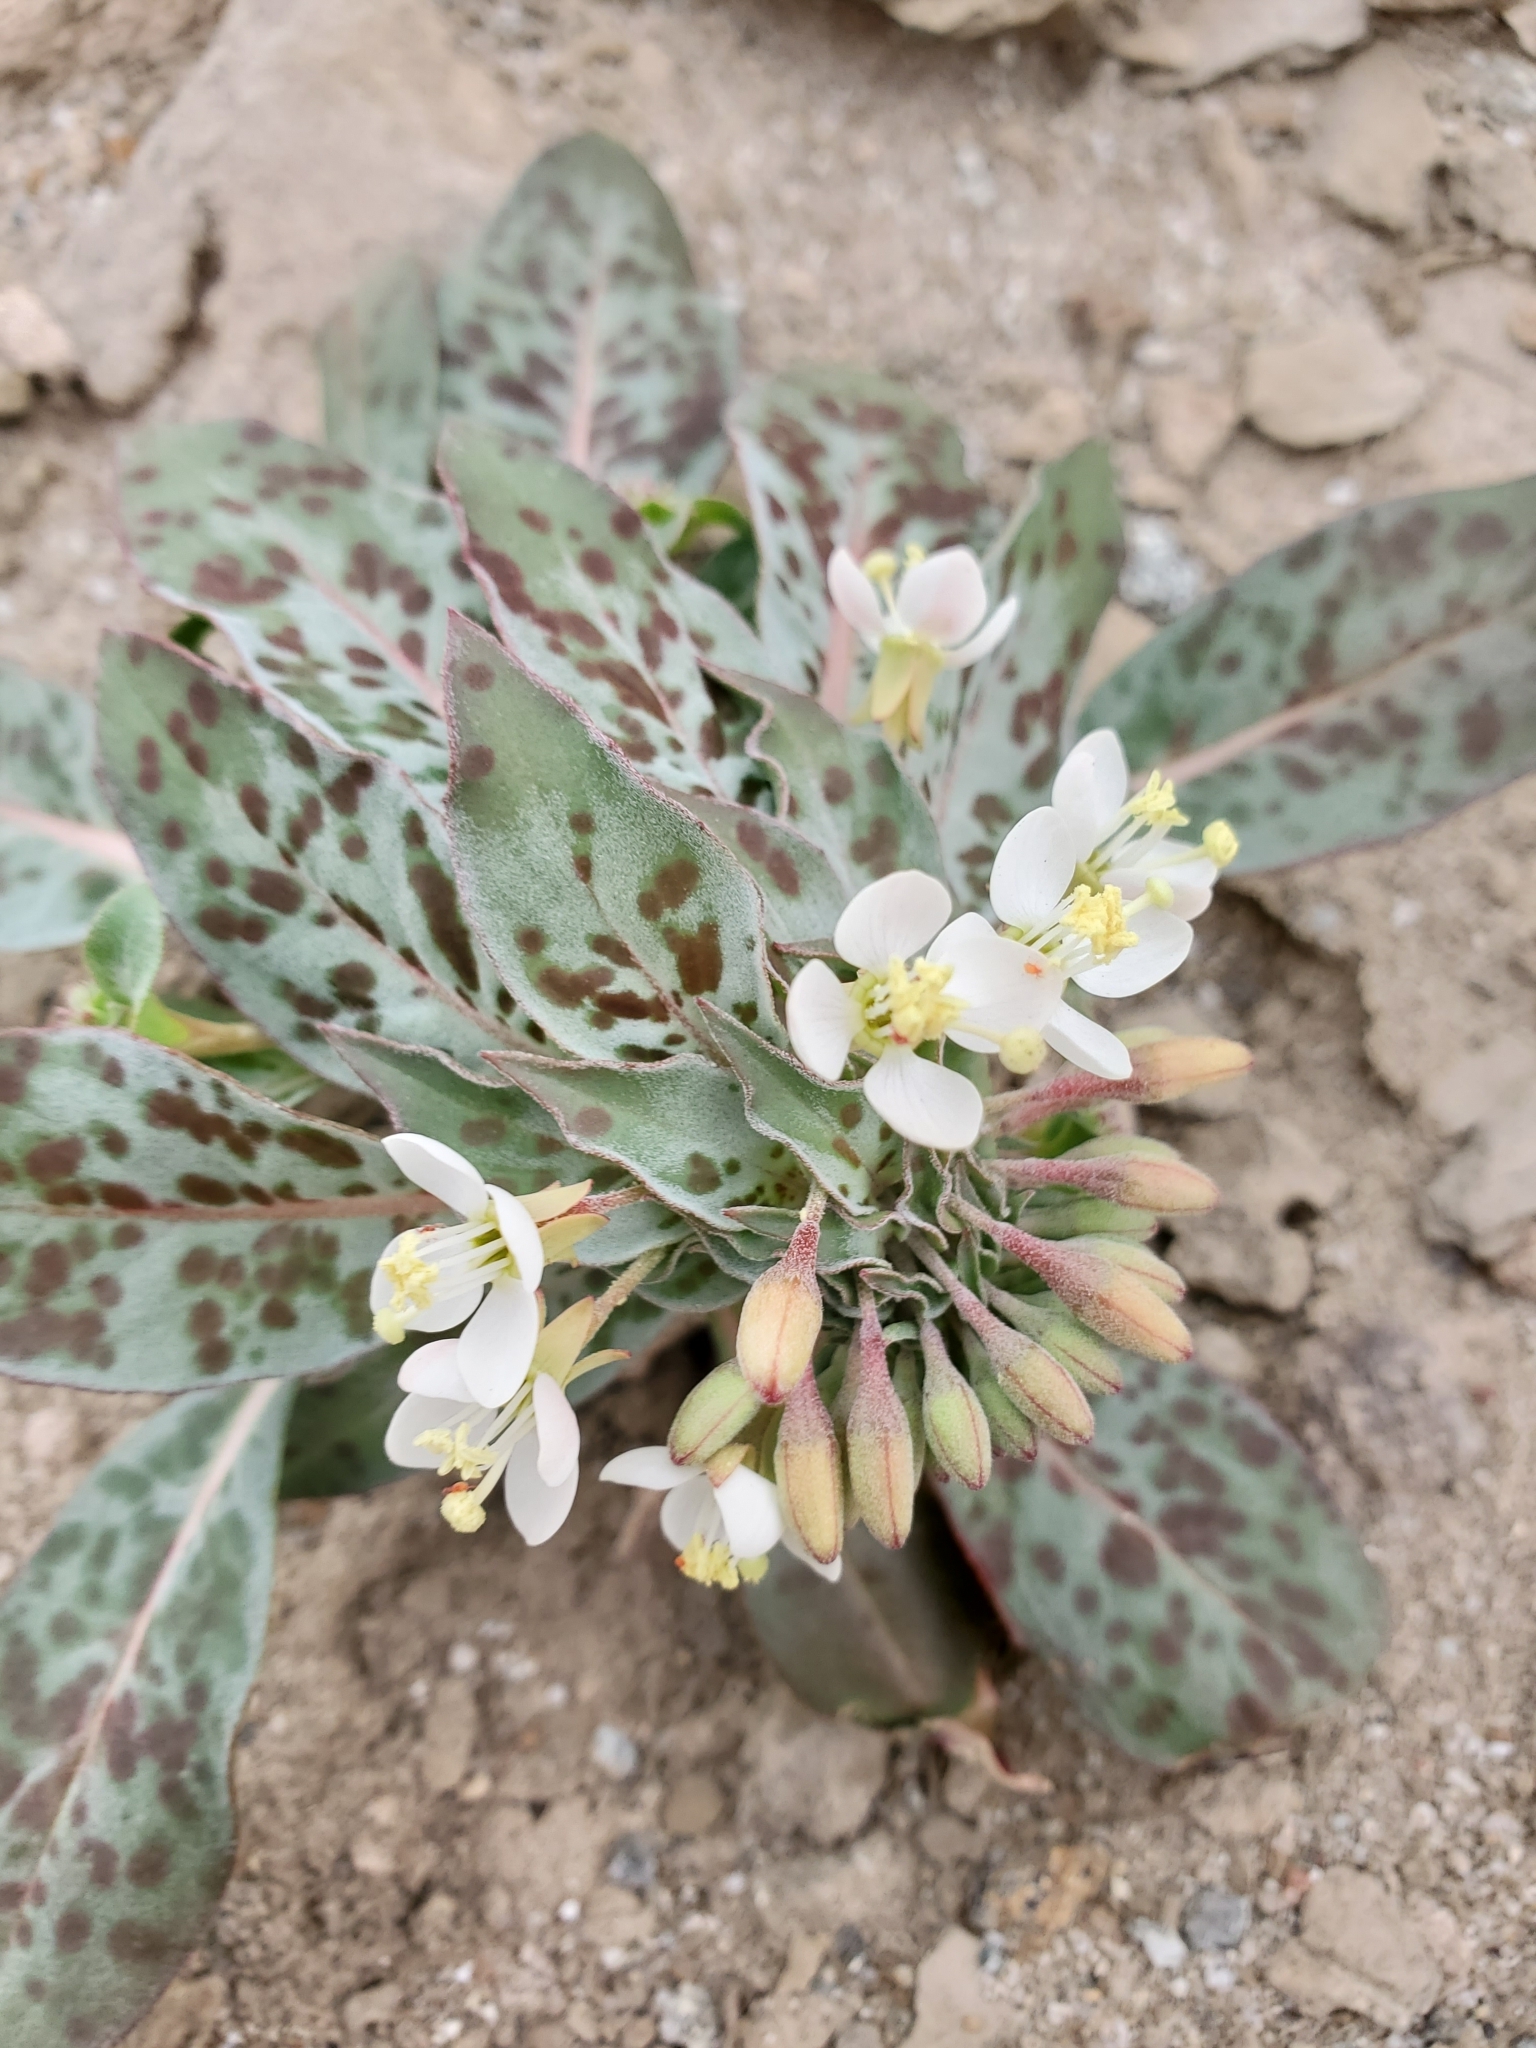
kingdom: Plantae
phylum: Tracheophyta
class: Magnoliopsida
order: Myrtales
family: Onagraceae
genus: Eremothera
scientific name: Eremothera boothii
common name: Booth's evening primrose
